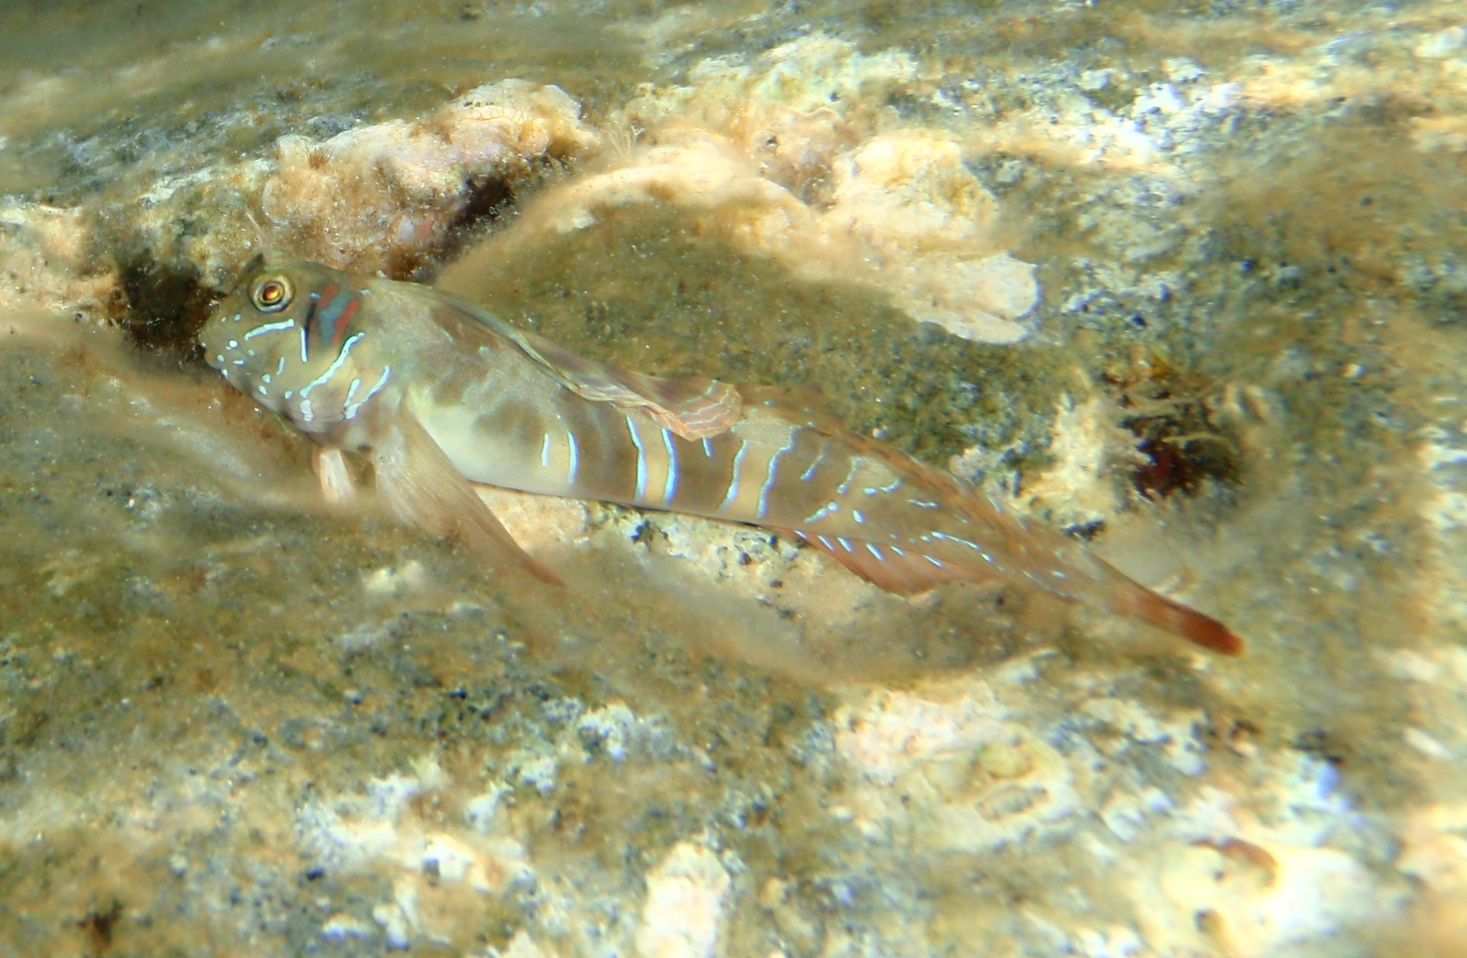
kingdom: Animalia
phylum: Chordata
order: Perciformes
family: Blenniidae
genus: Aidablennius
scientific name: Aidablennius sphynx
